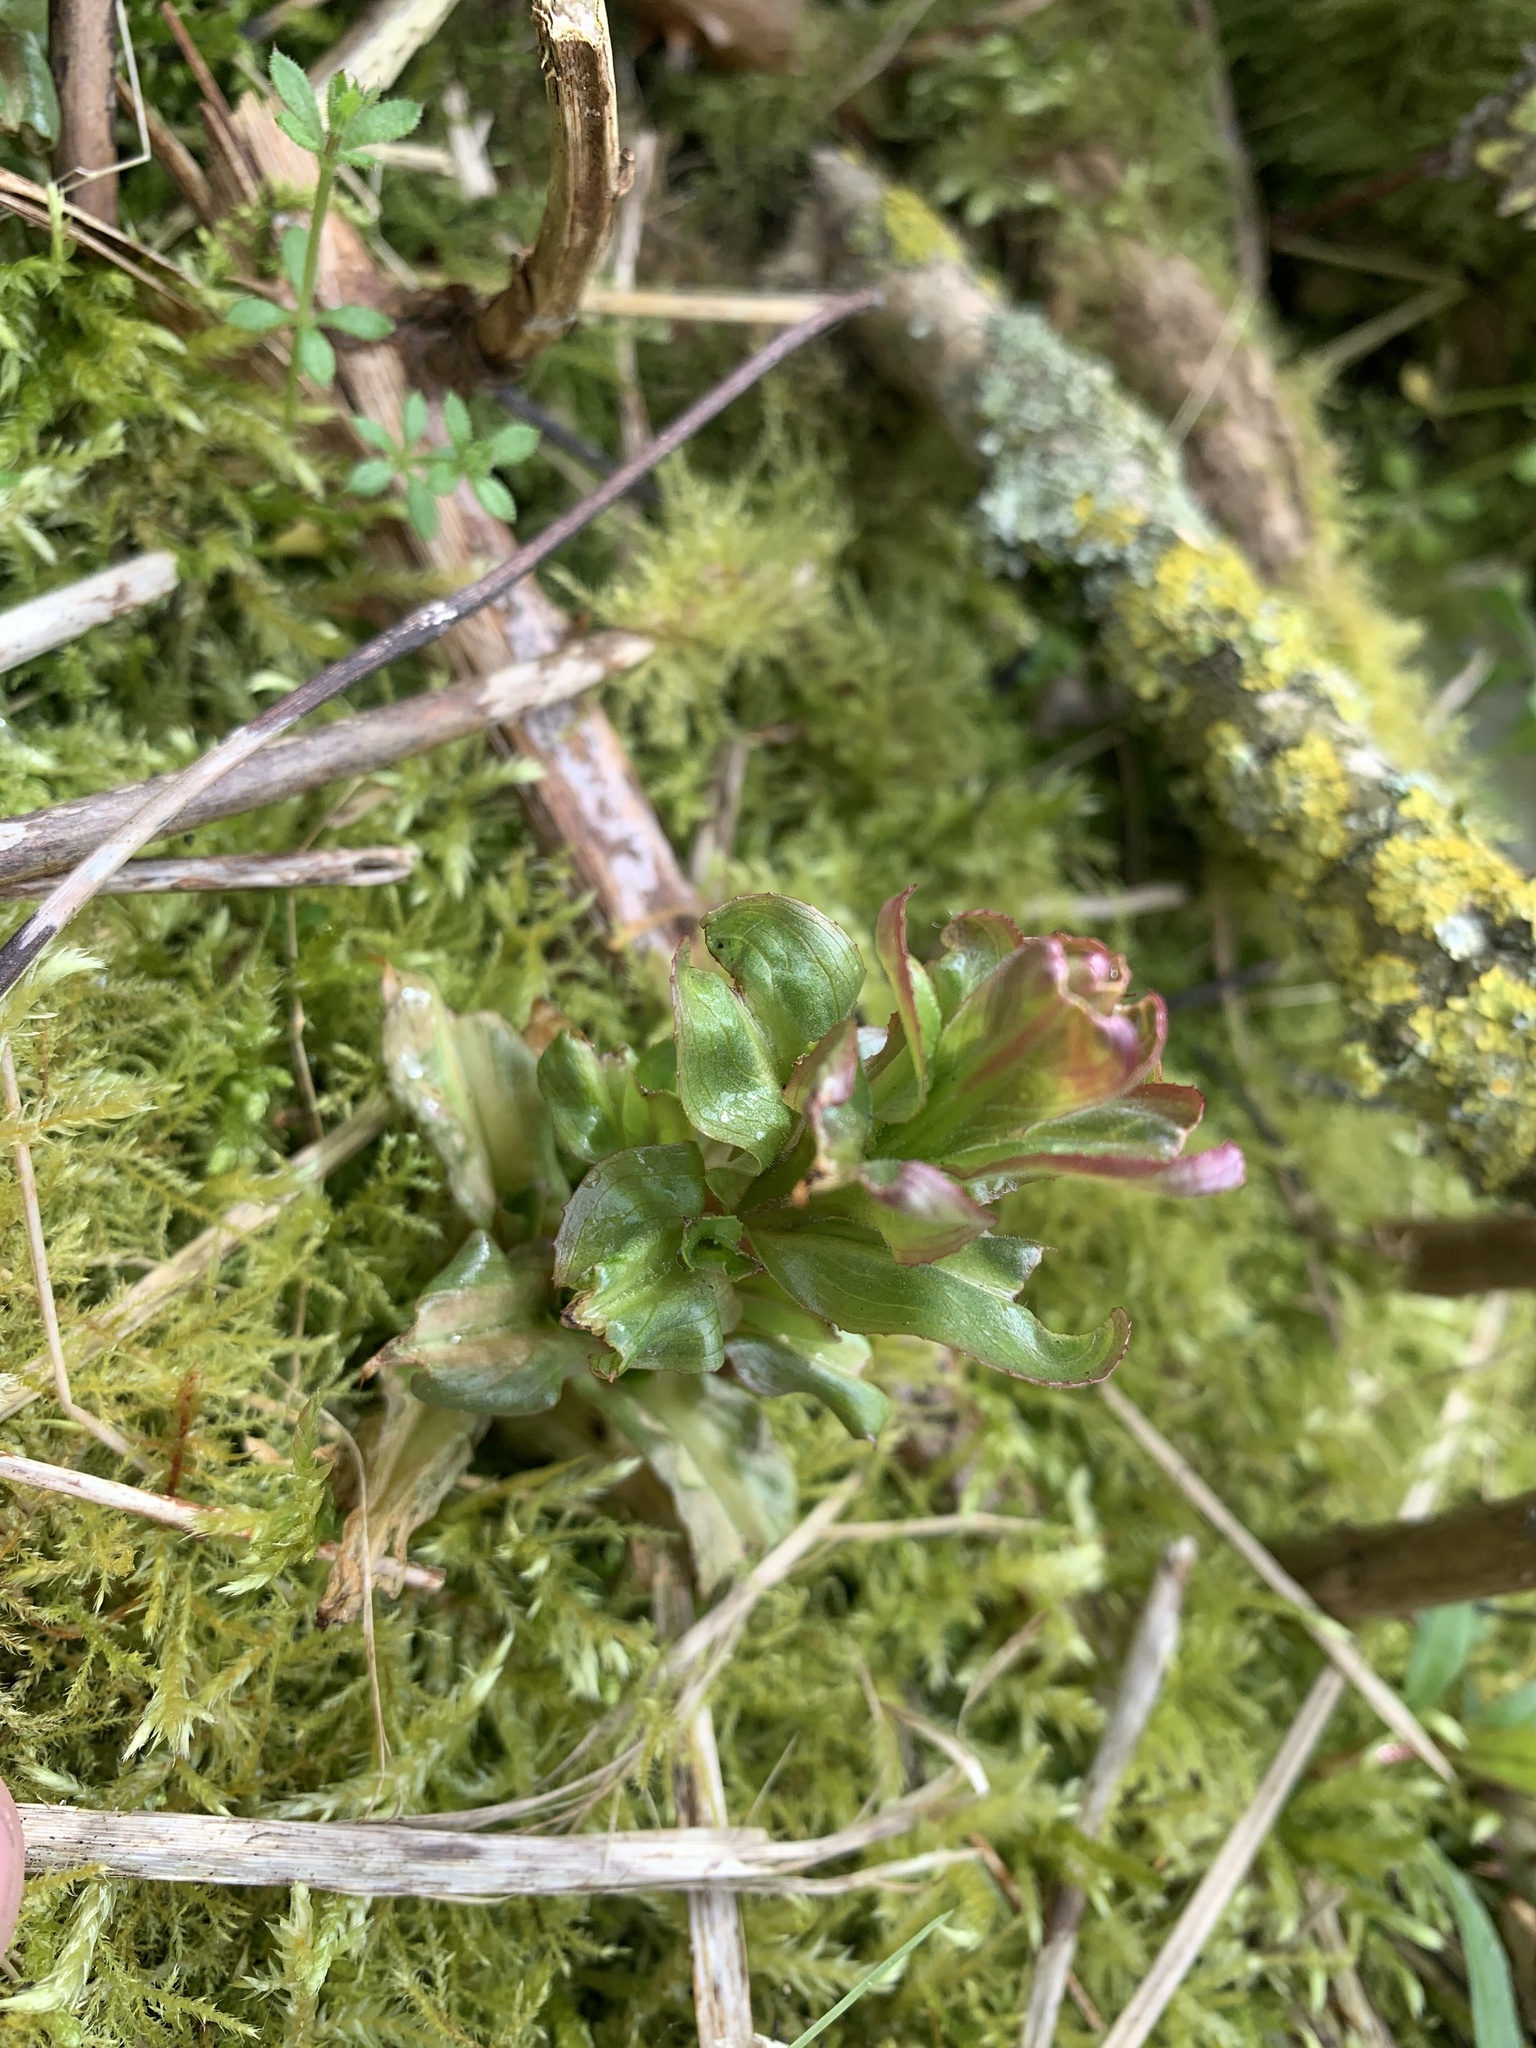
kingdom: Plantae
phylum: Tracheophyta
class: Magnoliopsida
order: Myrtales
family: Onagraceae
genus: Epilobium
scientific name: Epilobium hirsutum
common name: Great willowherb
